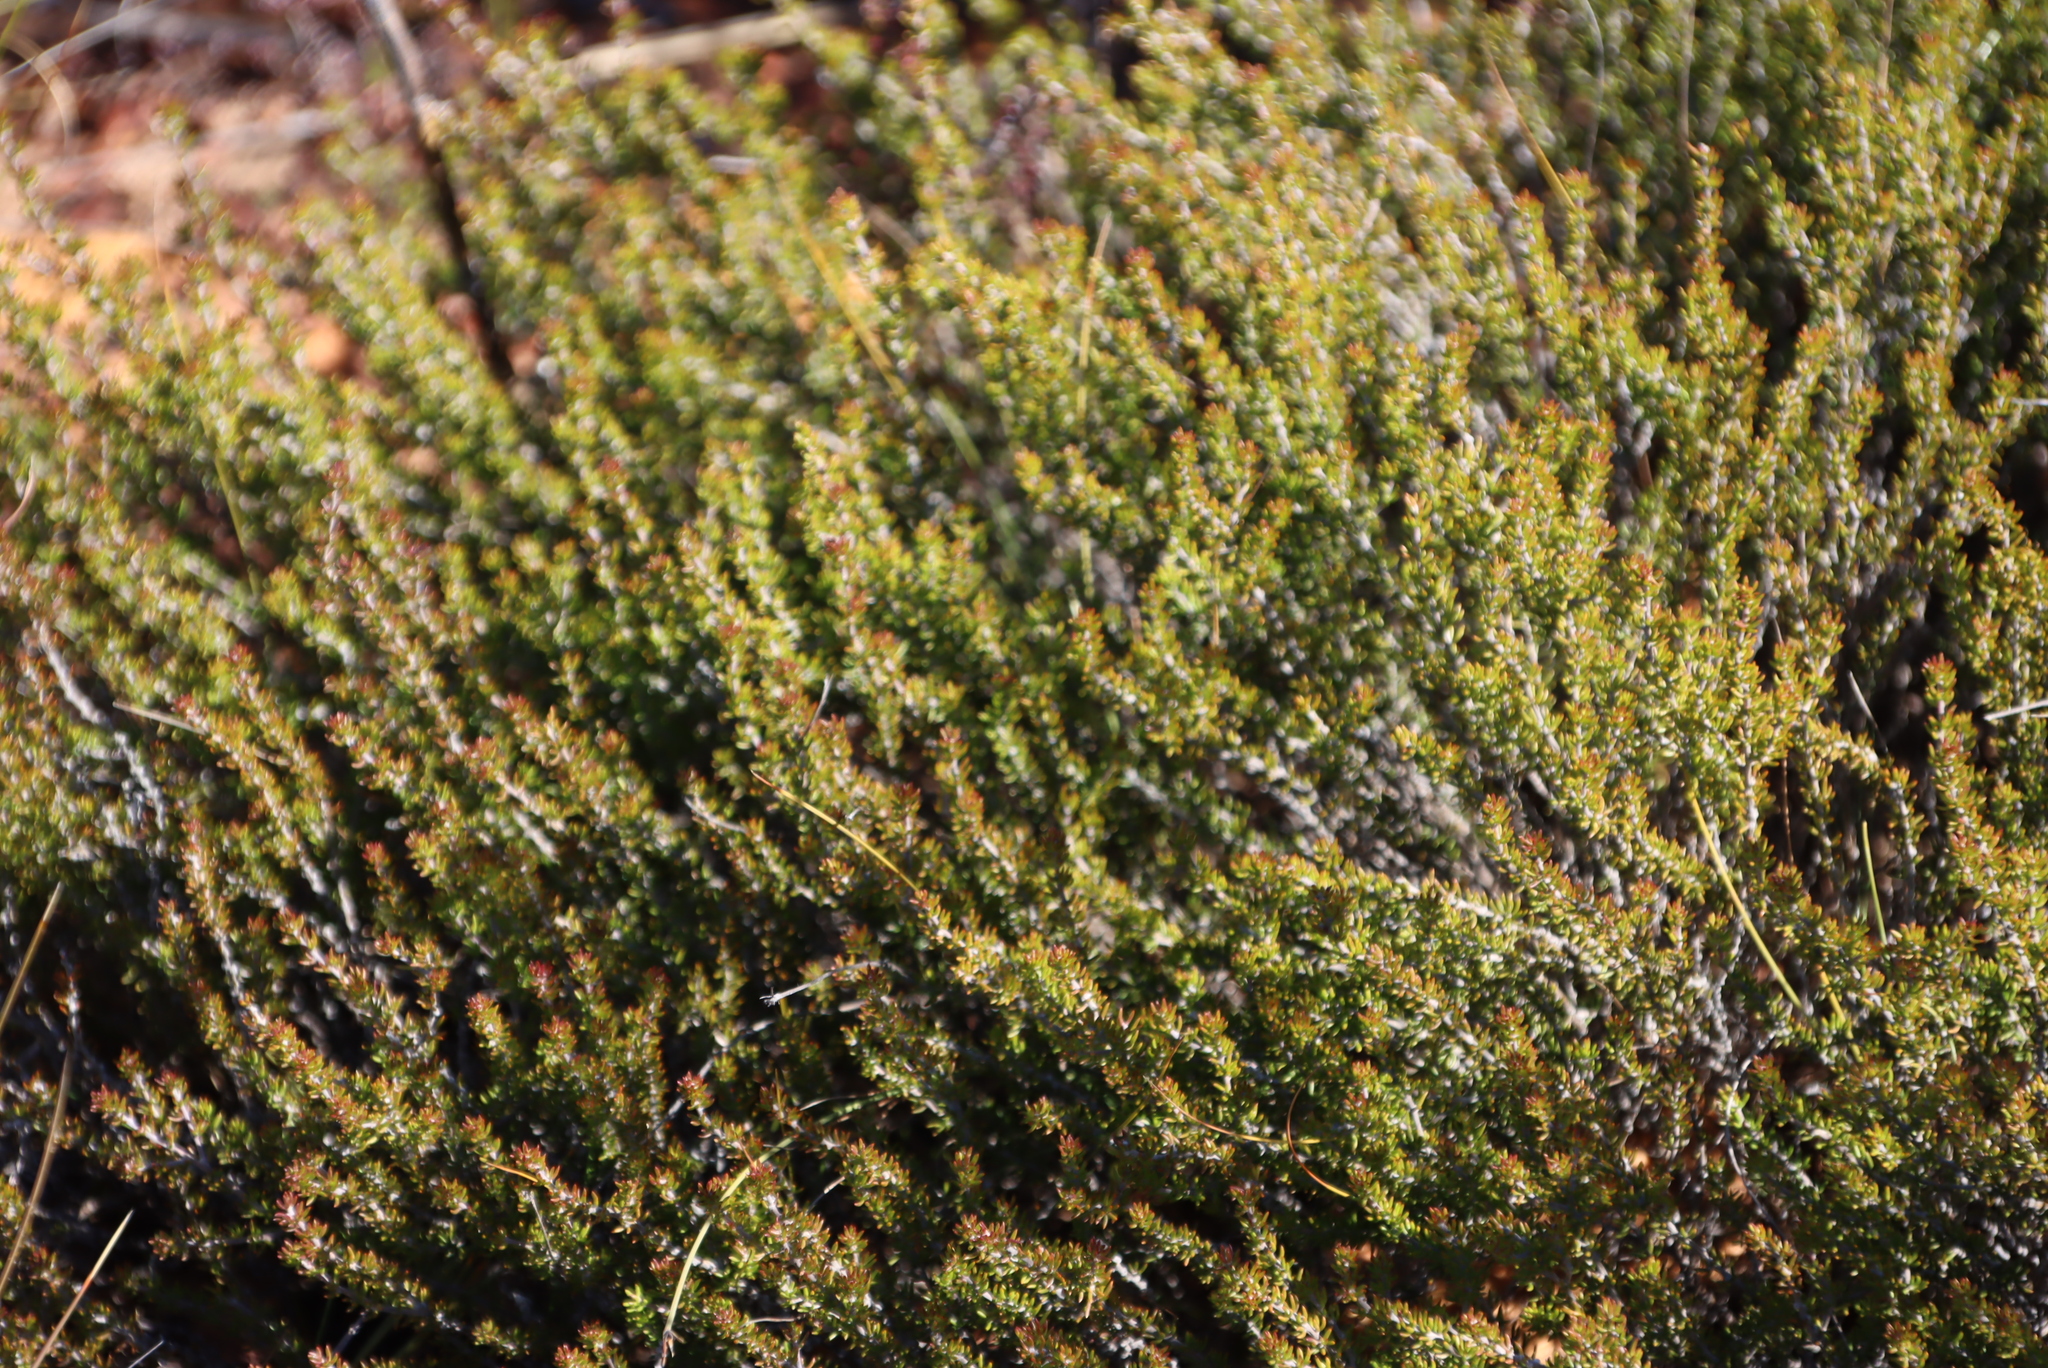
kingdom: Plantae
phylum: Tracheophyta
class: Magnoliopsida
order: Rosales
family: Rosaceae
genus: Cliffortia
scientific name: Cliffortia ramosissima
